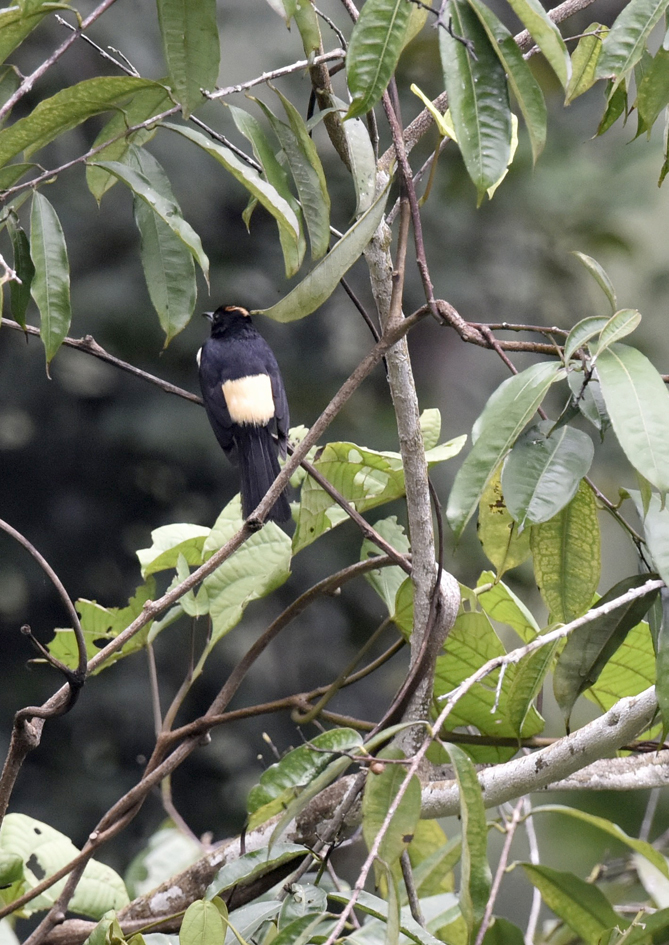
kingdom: Animalia
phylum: Chordata
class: Aves
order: Passeriformes
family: Thraupidae
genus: Tachyphonus
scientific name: Tachyphonus surinamus
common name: Fulvous-crested tanager
